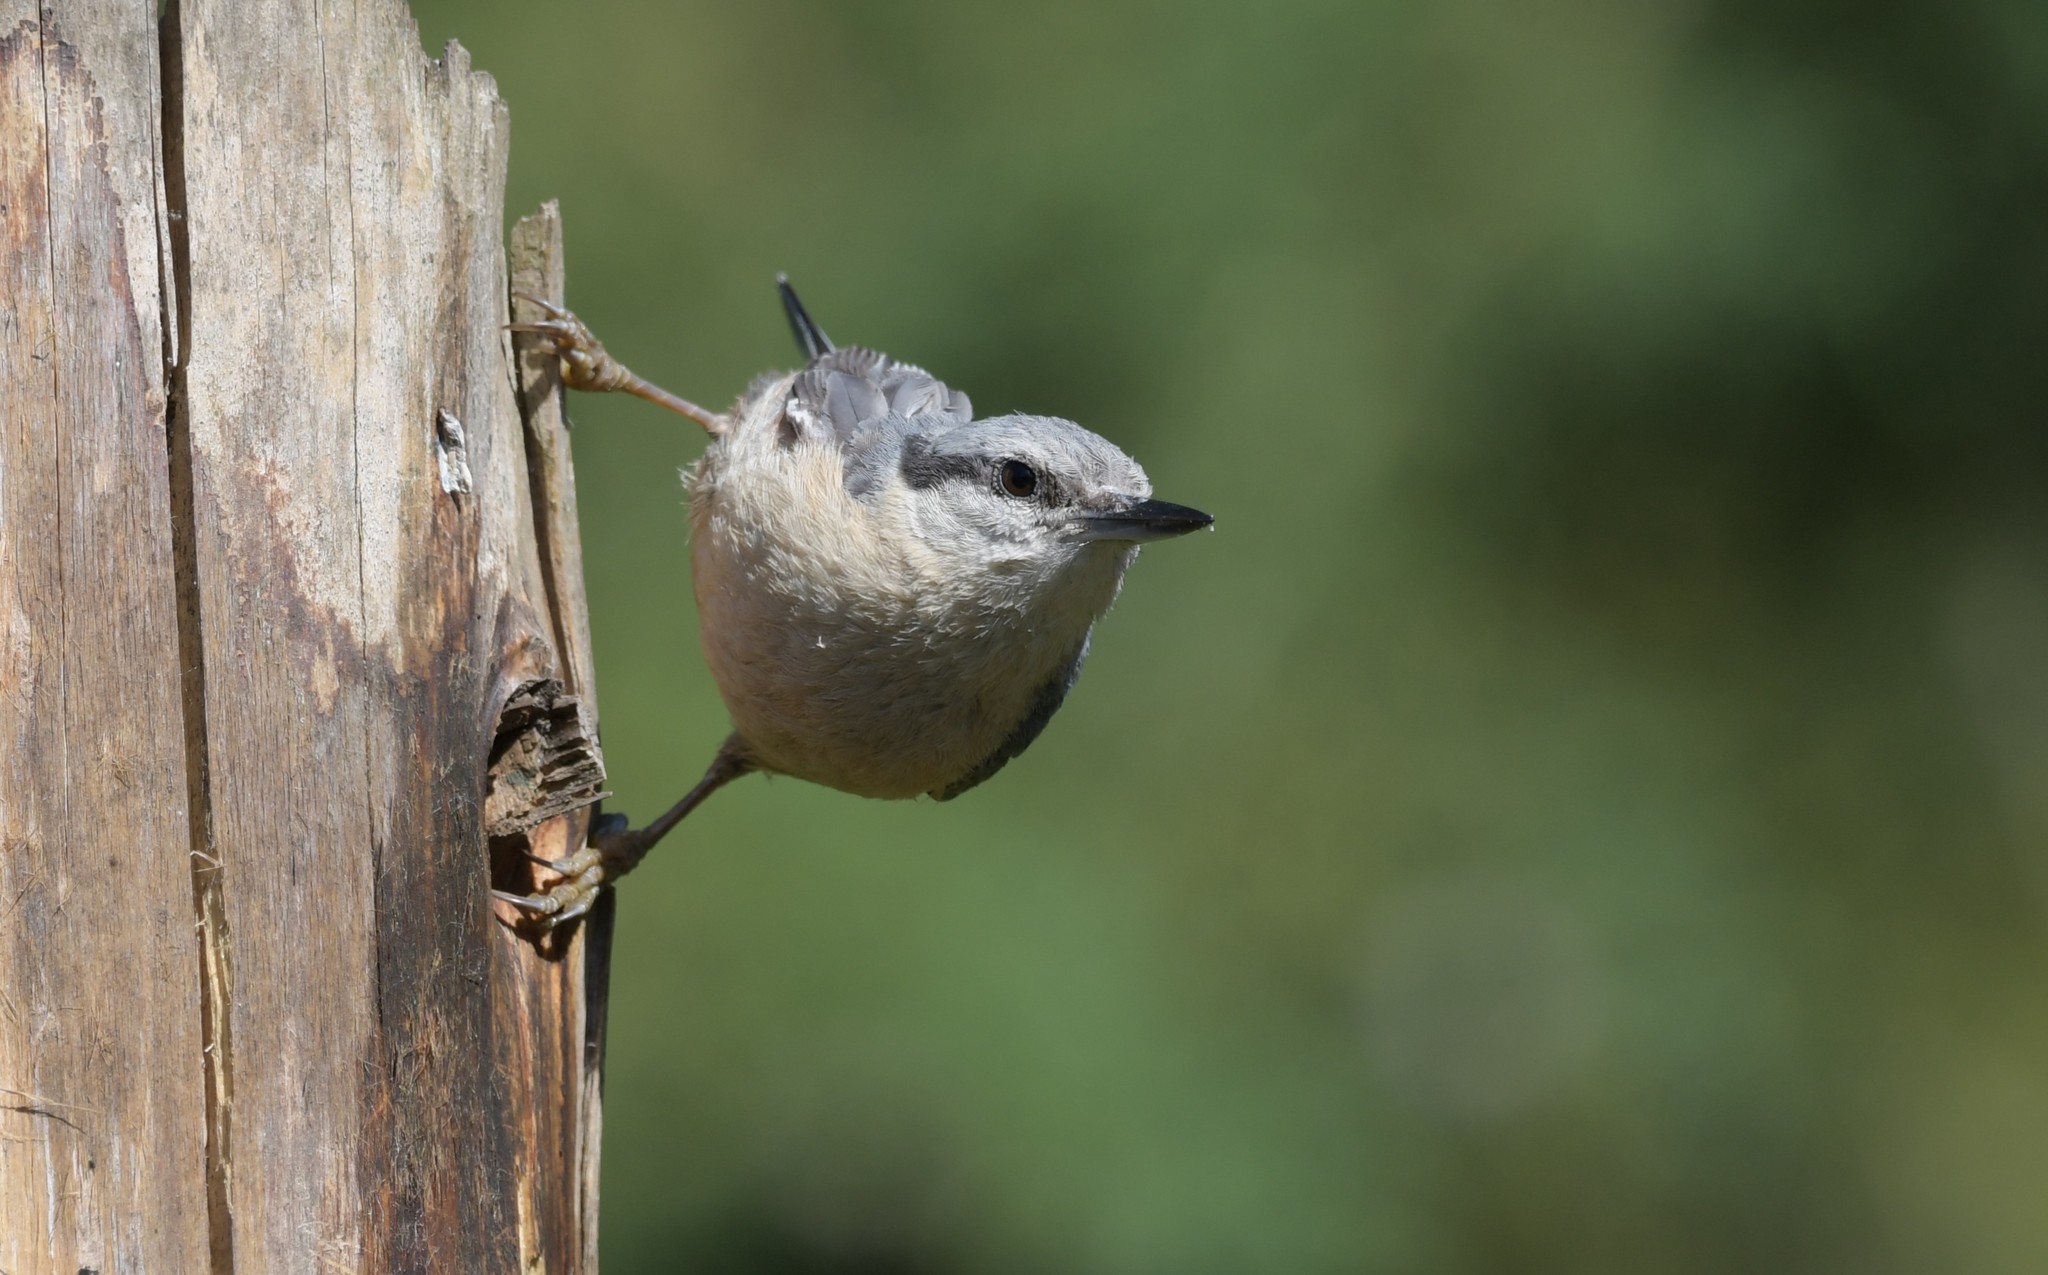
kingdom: Animalia
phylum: Chordata
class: Aves
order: Passeriformes
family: Sittidae
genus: Sitta
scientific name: Sitta europaea
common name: Eurasian nuthatch
